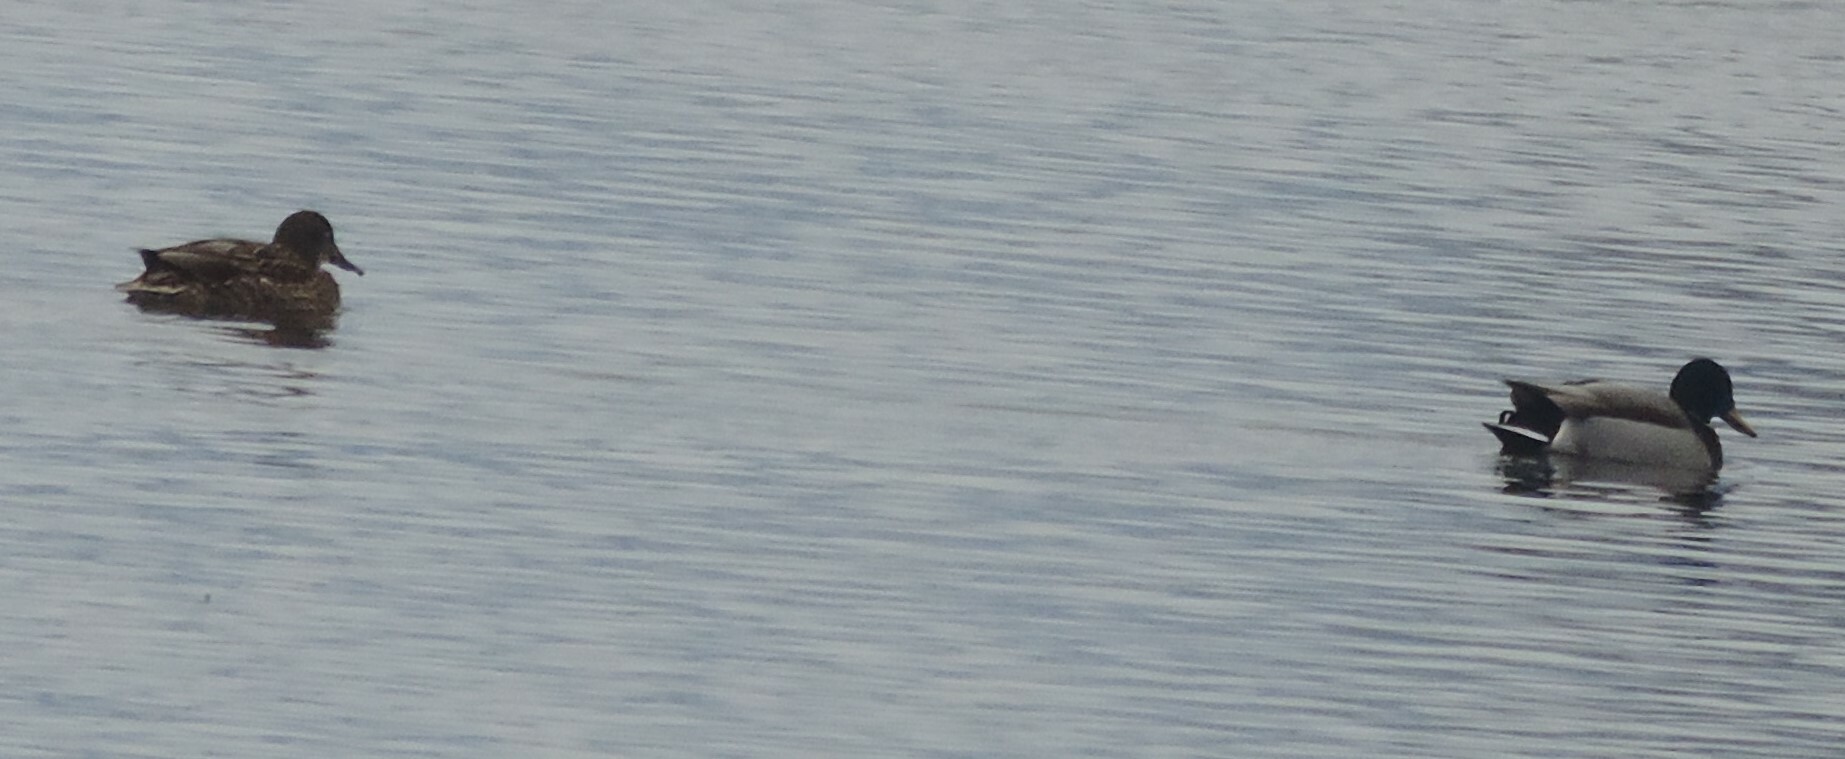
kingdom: Animalia
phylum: Chordata
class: Aves
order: Anseriformes
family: Anatidae
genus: Anas
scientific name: Anas platyrhynchos
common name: Mallard
